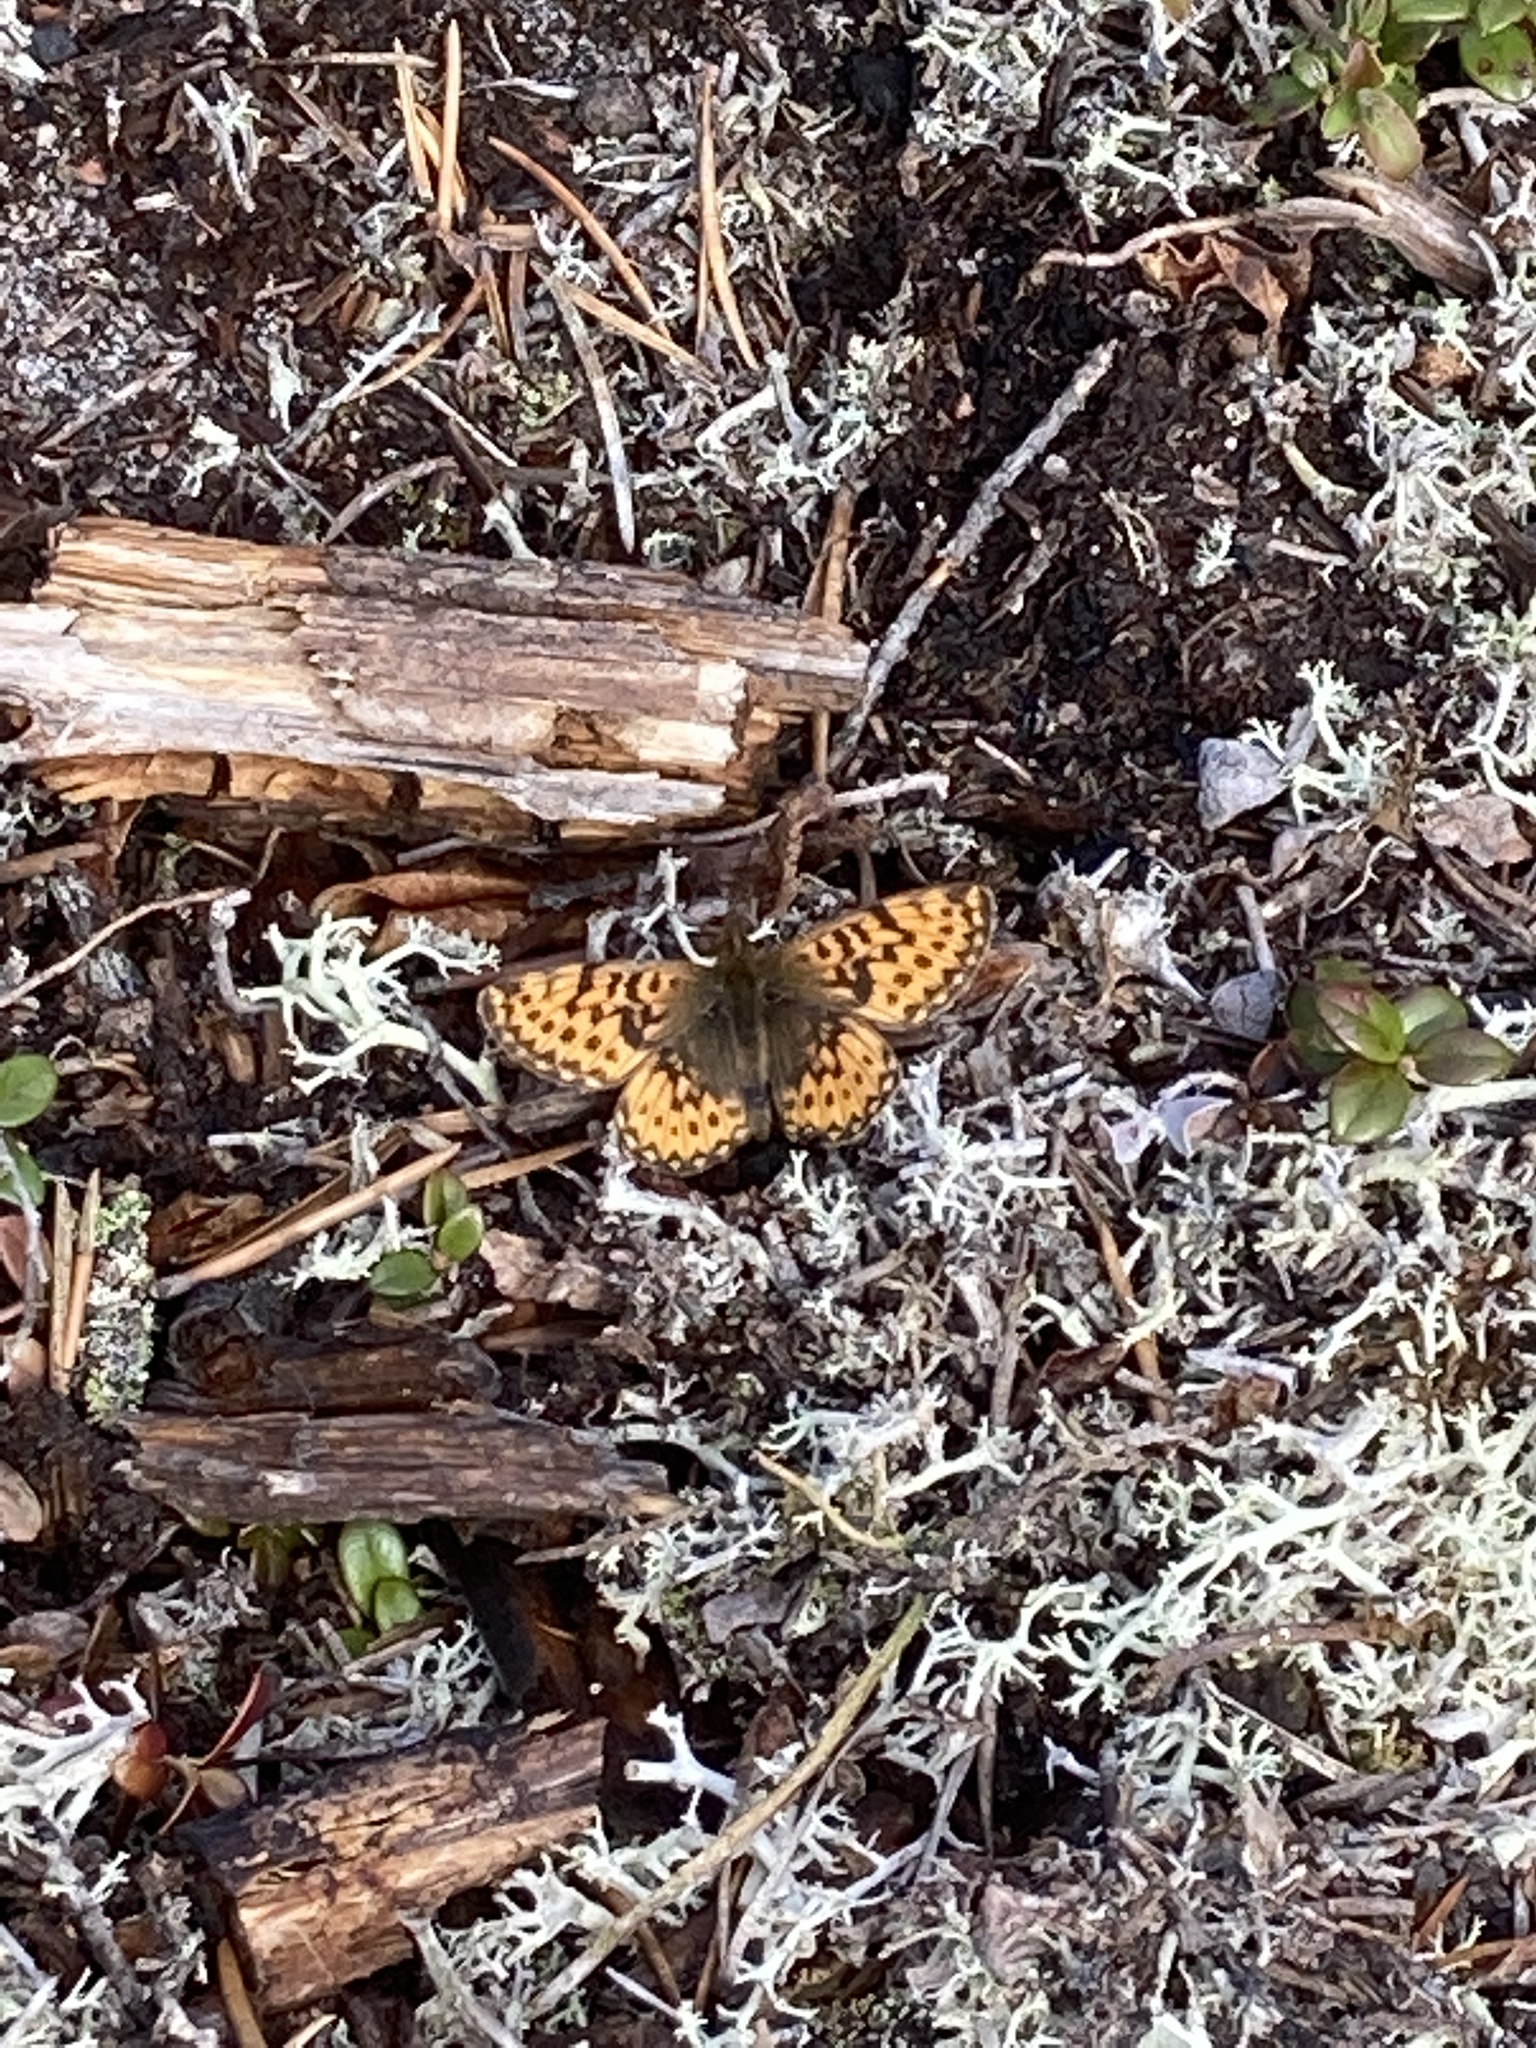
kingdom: Animalia
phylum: Arthropoda
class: Insecta
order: Lepidoptera
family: Nymphalidae
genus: Boloria
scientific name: Boloria freija
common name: Freija fritillary
